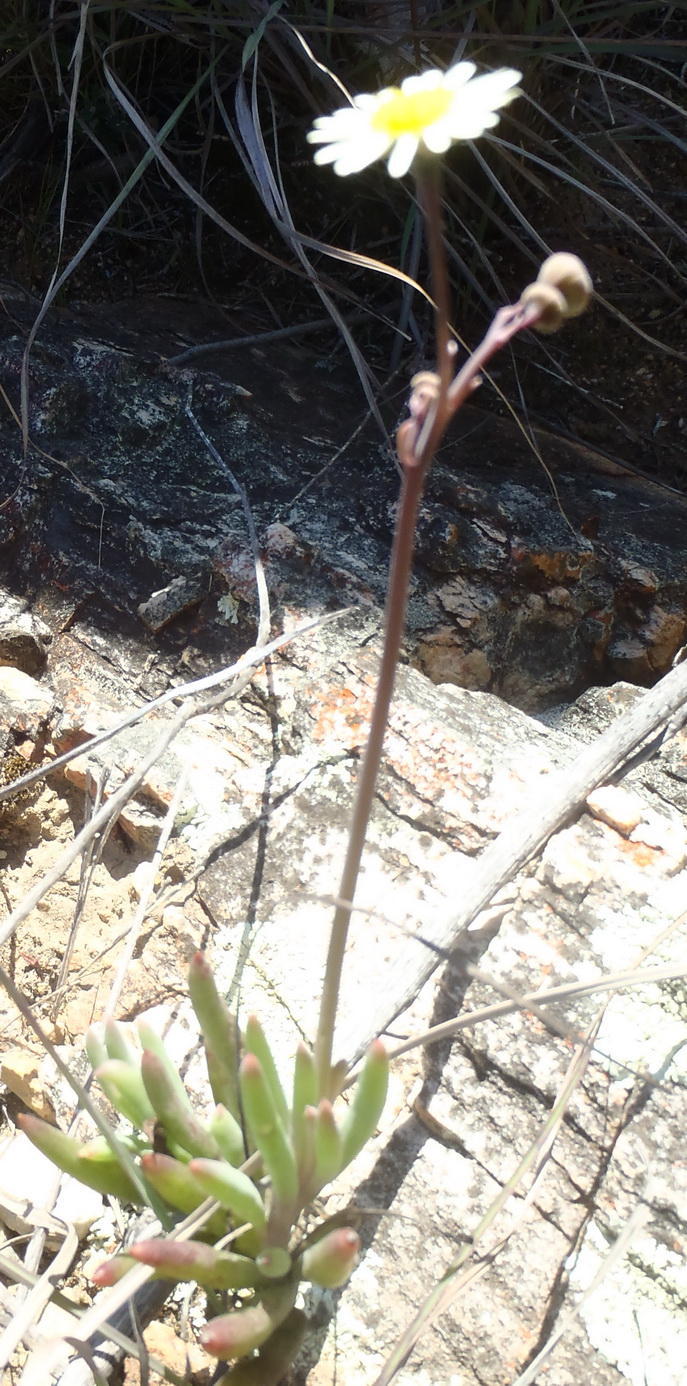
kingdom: Plantae
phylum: Tracheophyta
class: Magnoliopsida
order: Asterales
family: Asteraceae
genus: Crassothonna
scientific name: Crassothonna alba
